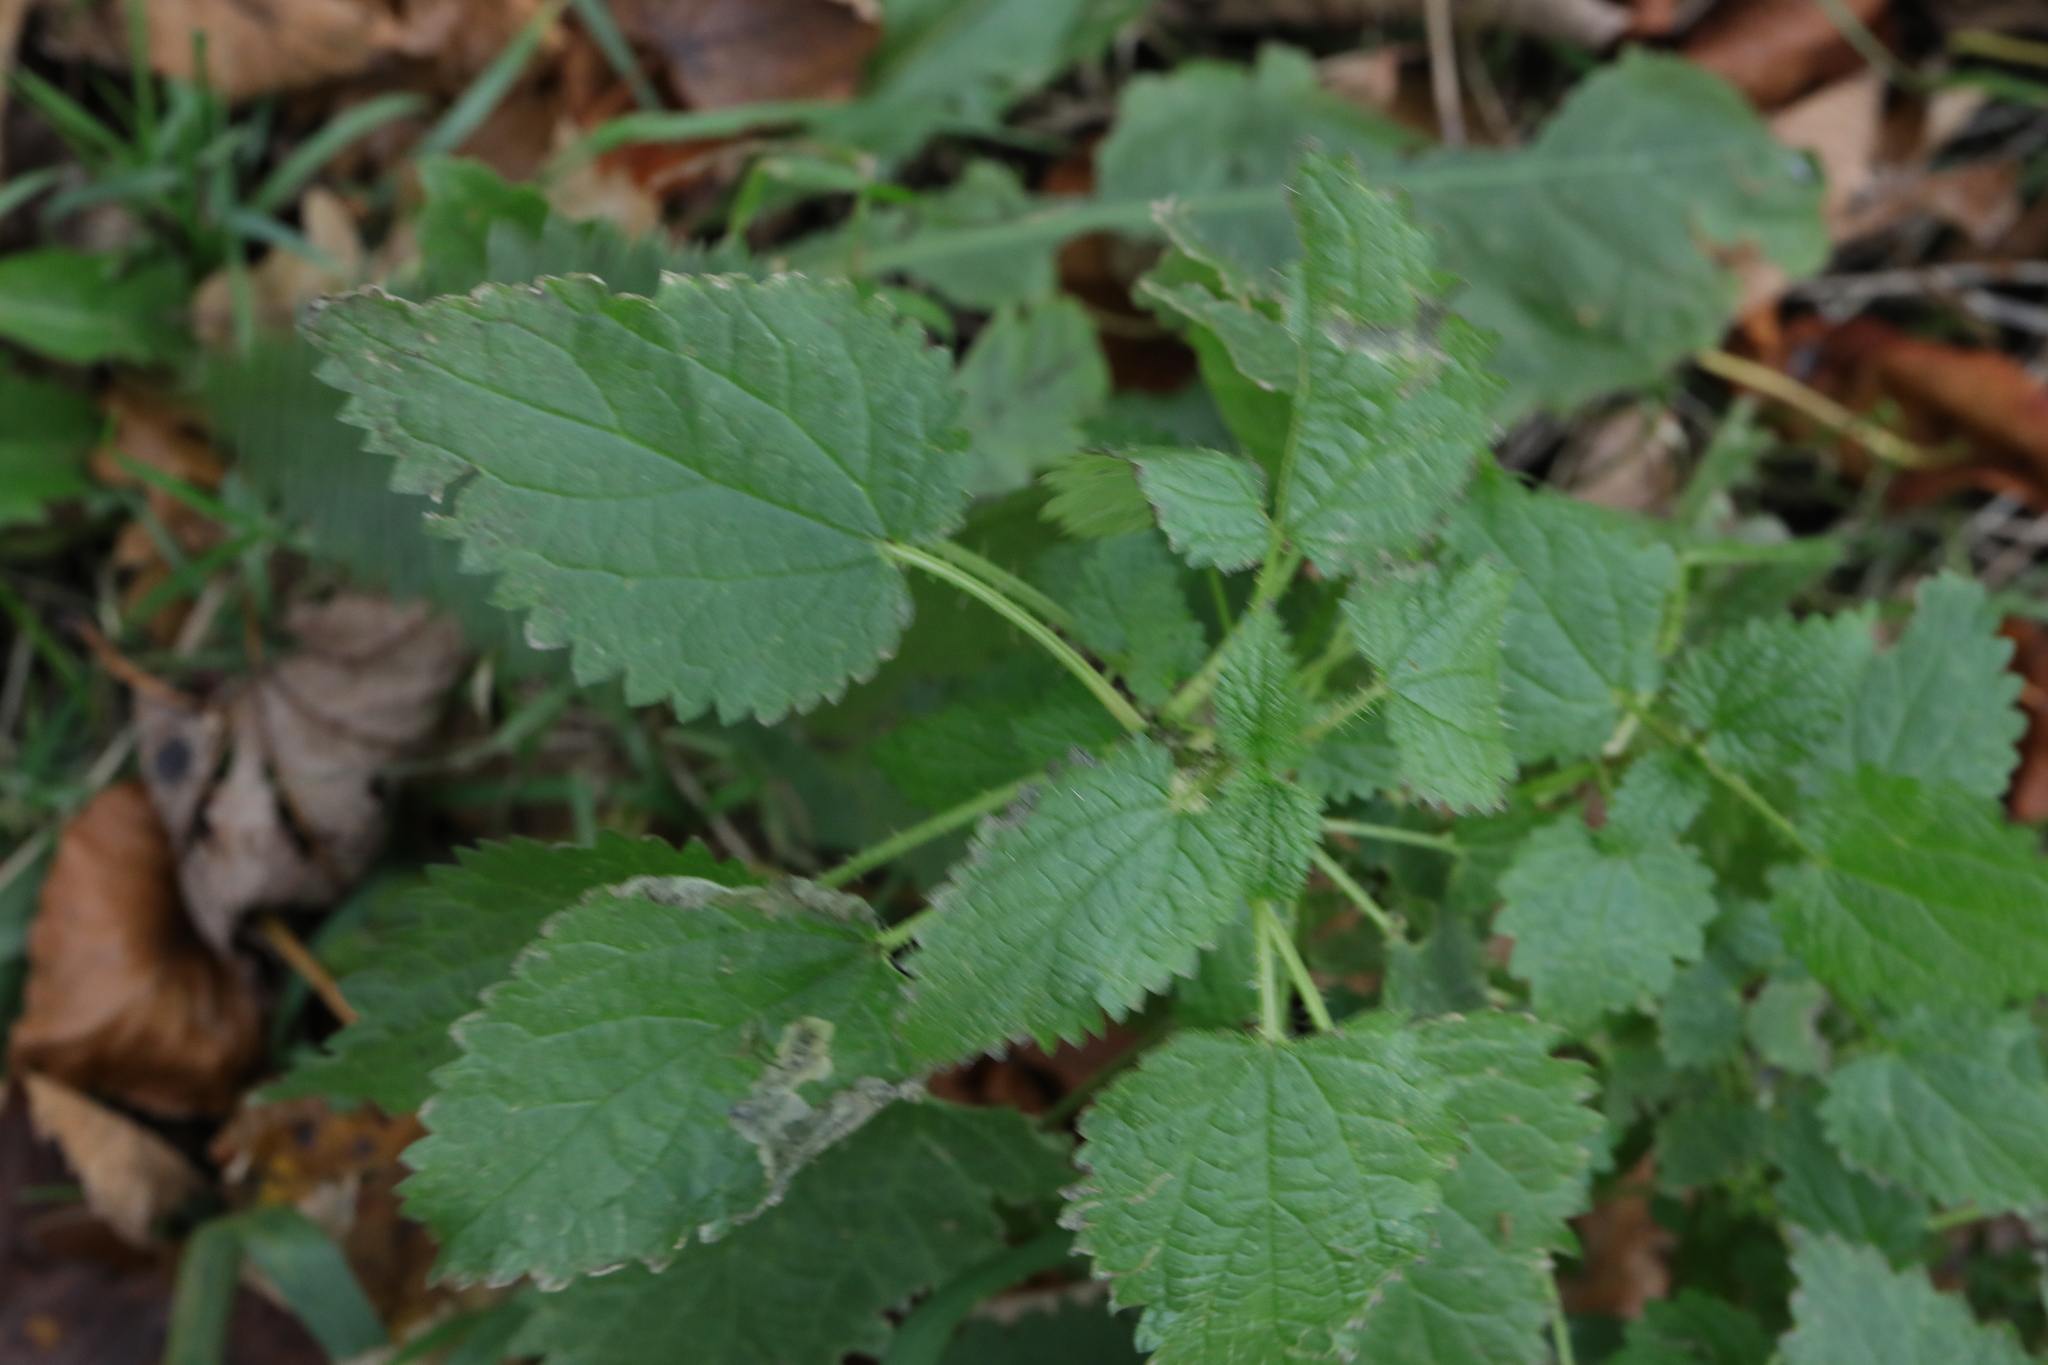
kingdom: Plantae
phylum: Tracheophyta
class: Magnoliopsida
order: Rosales
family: Urticaceae
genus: Urtica
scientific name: Urtica dioica
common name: Common nettle
